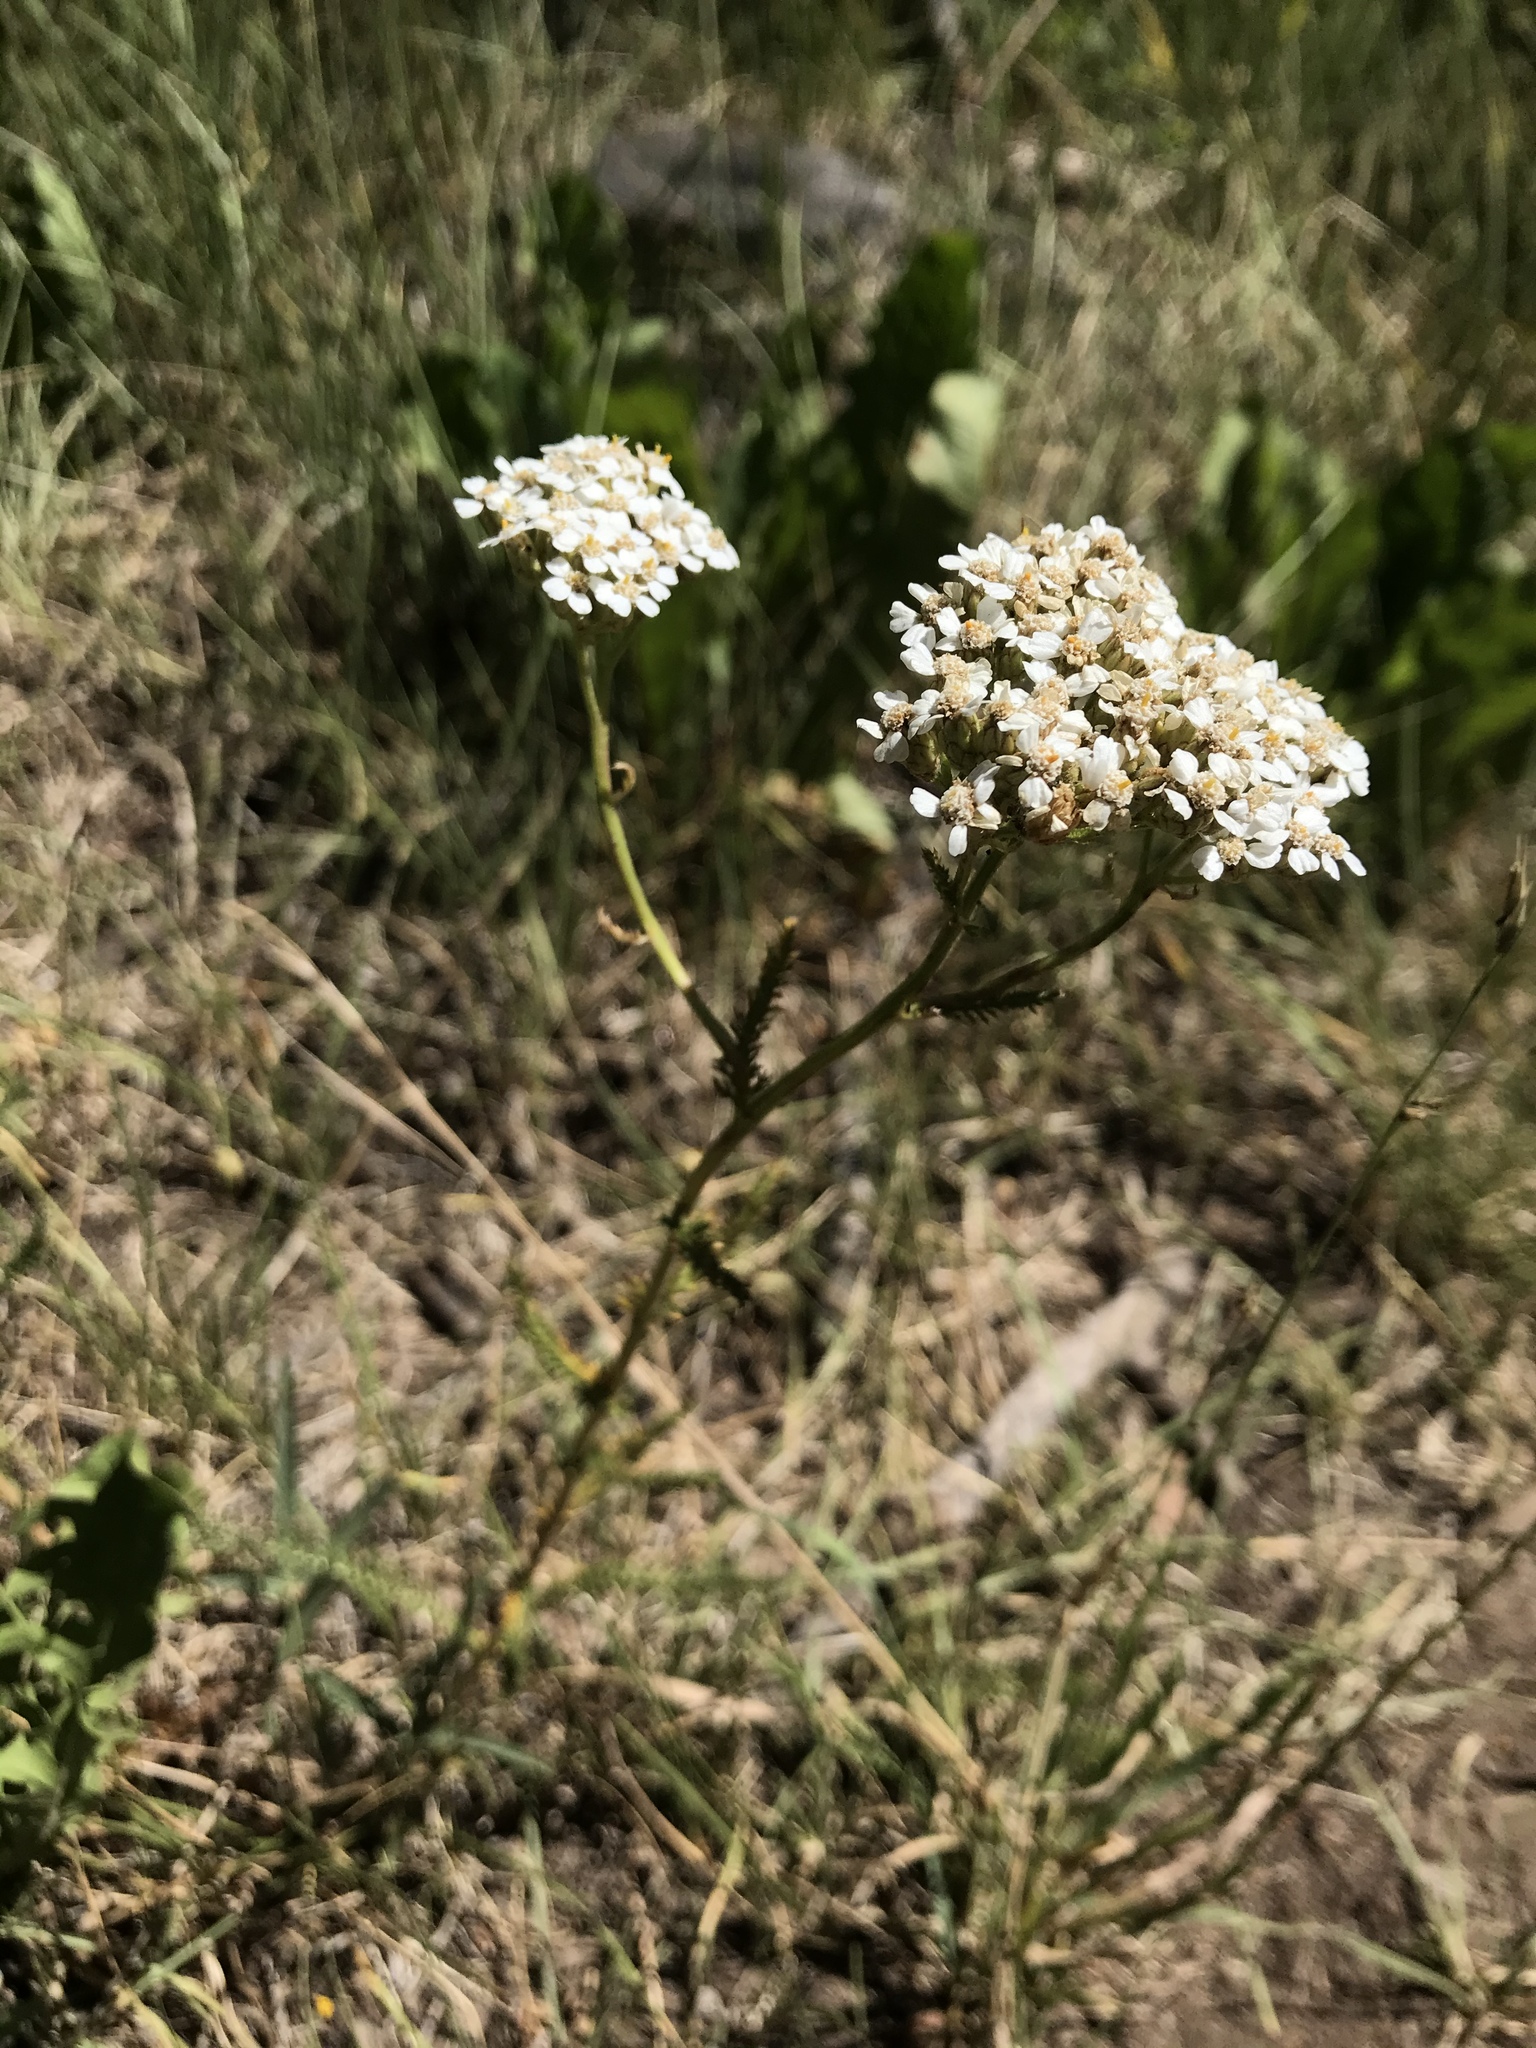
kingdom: Plantae
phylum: Tracheophyta
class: Magnoliopsida
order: Asterales
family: Asteraceae
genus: Achillea
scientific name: Achillea millefolium
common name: Yarrow
